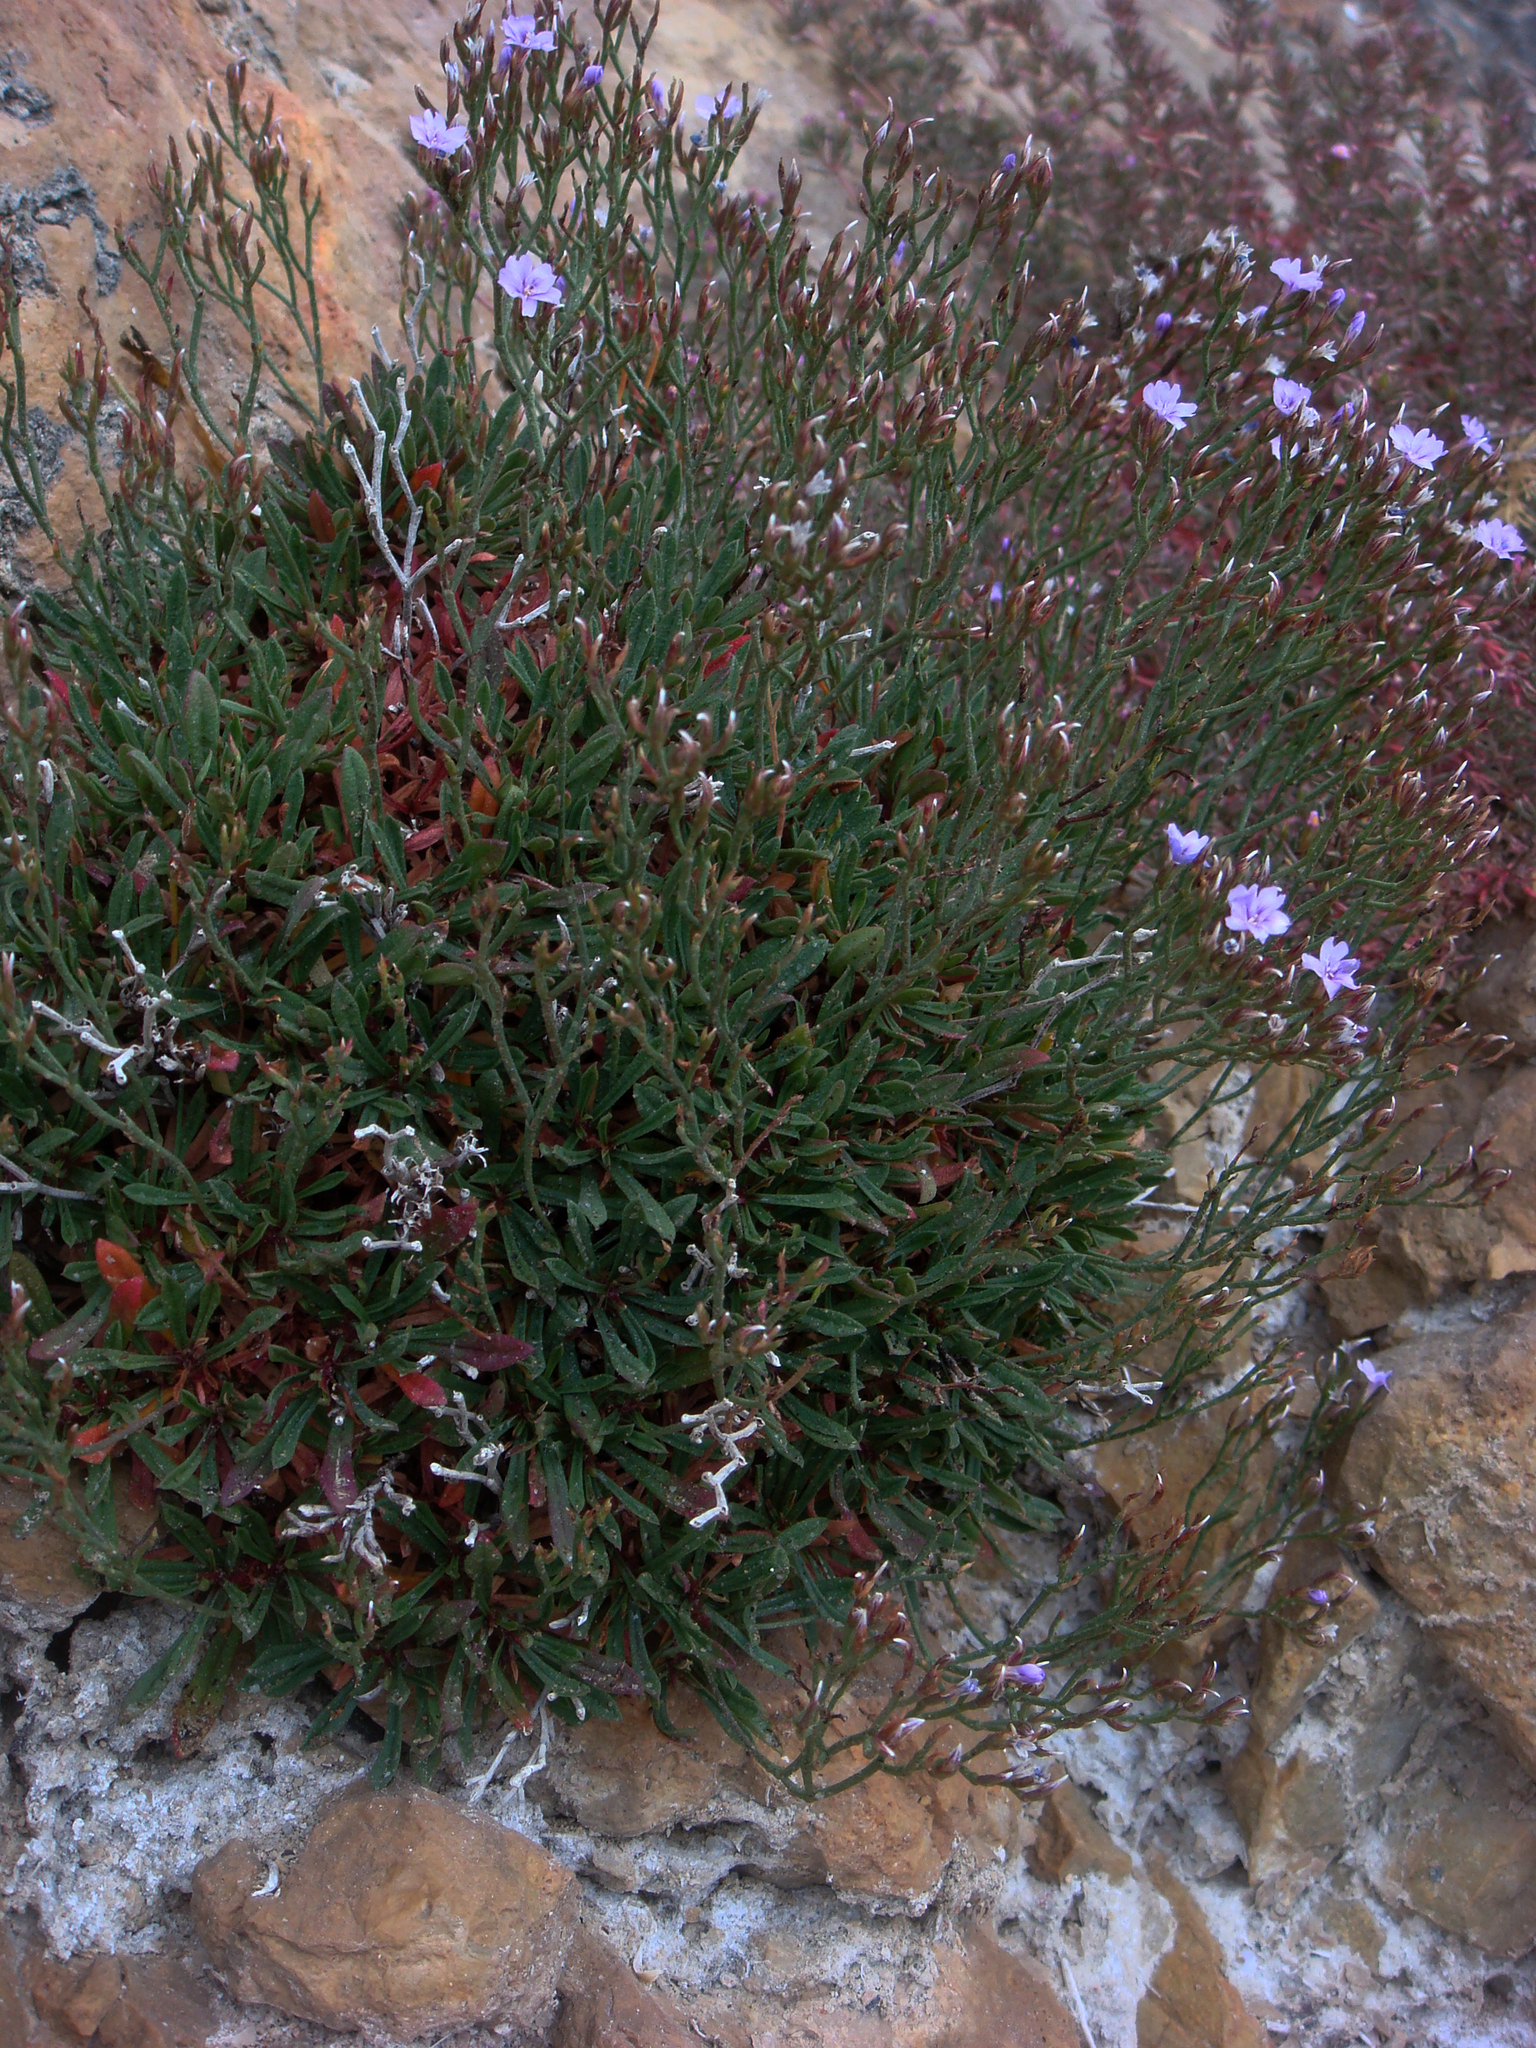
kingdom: Plantae
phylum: Tracheophyta
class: Magnoliopsida
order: Caryophyllales
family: Plumbaginaceae
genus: Limonium
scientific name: Limonium acutifolium
